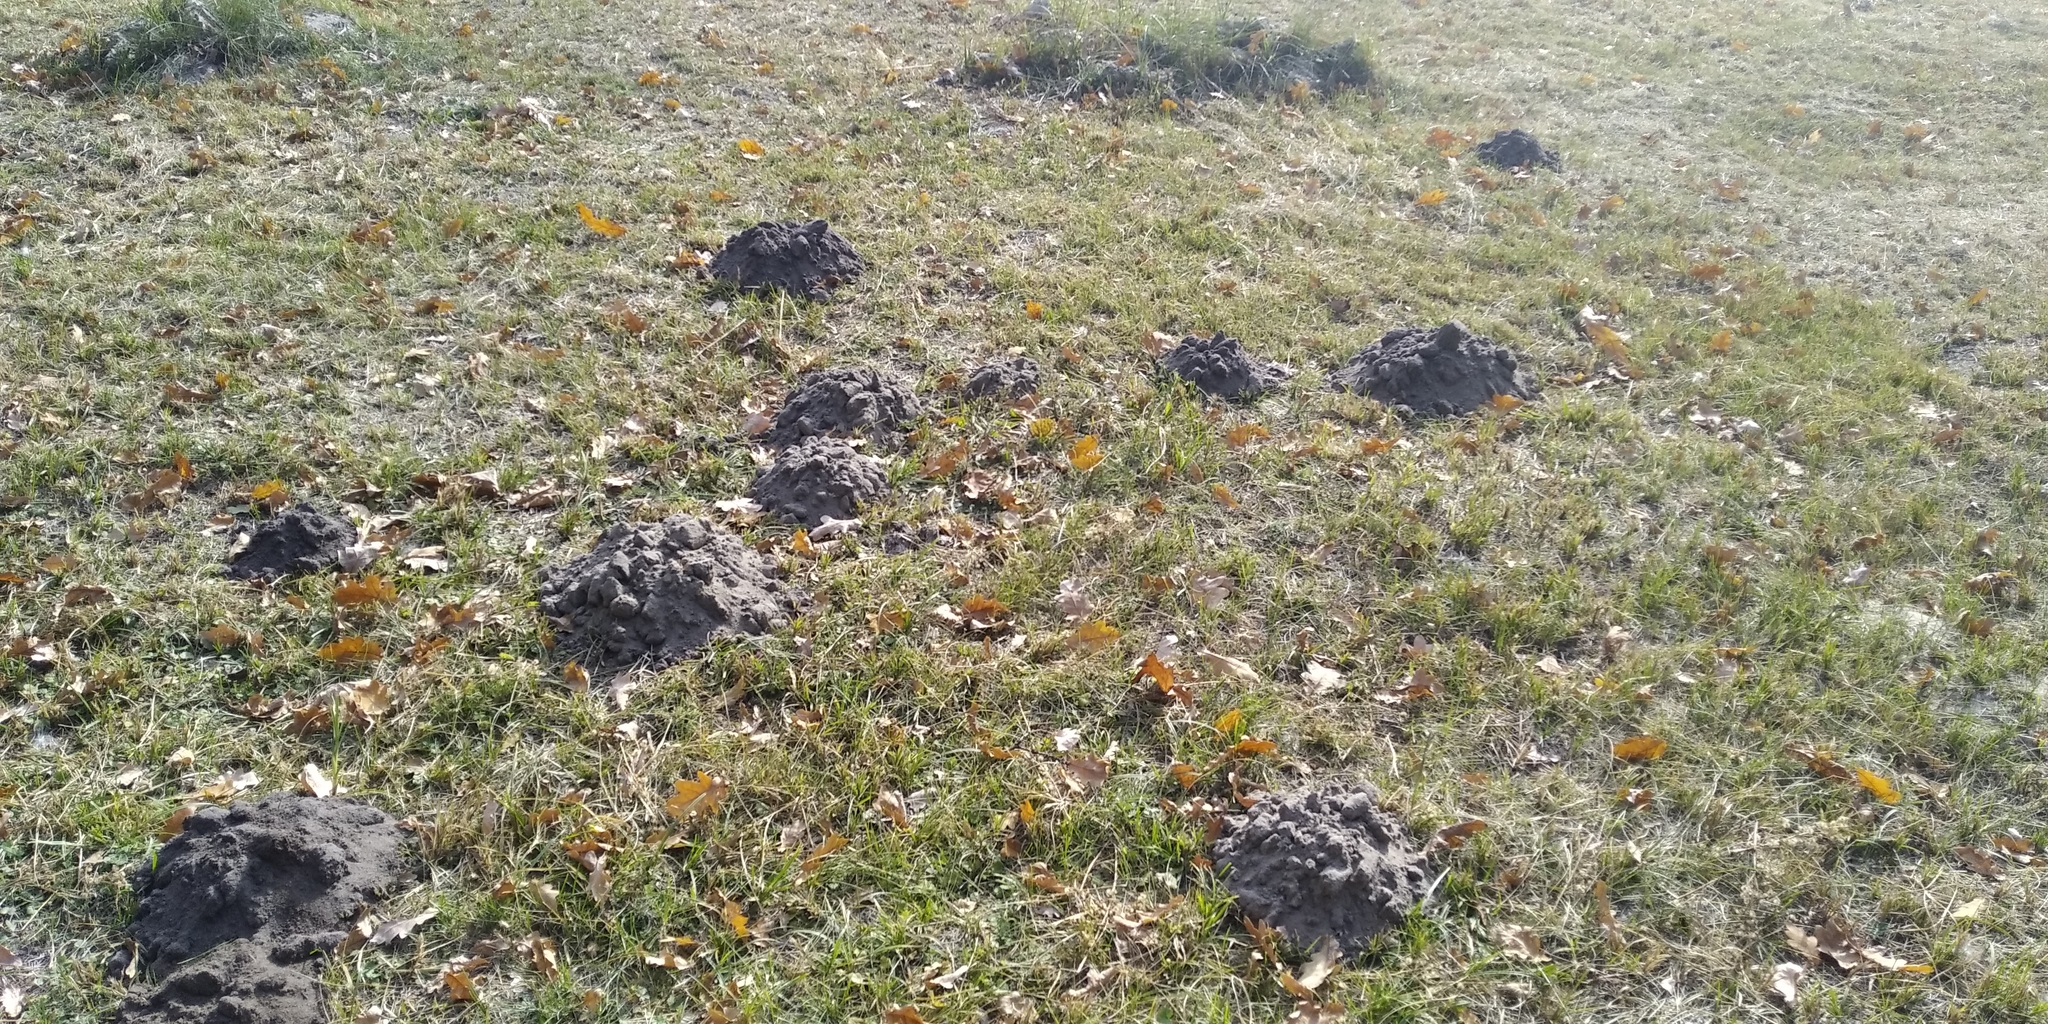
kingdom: Animalia
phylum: Chordata
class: Mammalia
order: Soricomorpha
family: Talpidae
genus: Talpa
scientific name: Talpa europaea
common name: European mole
